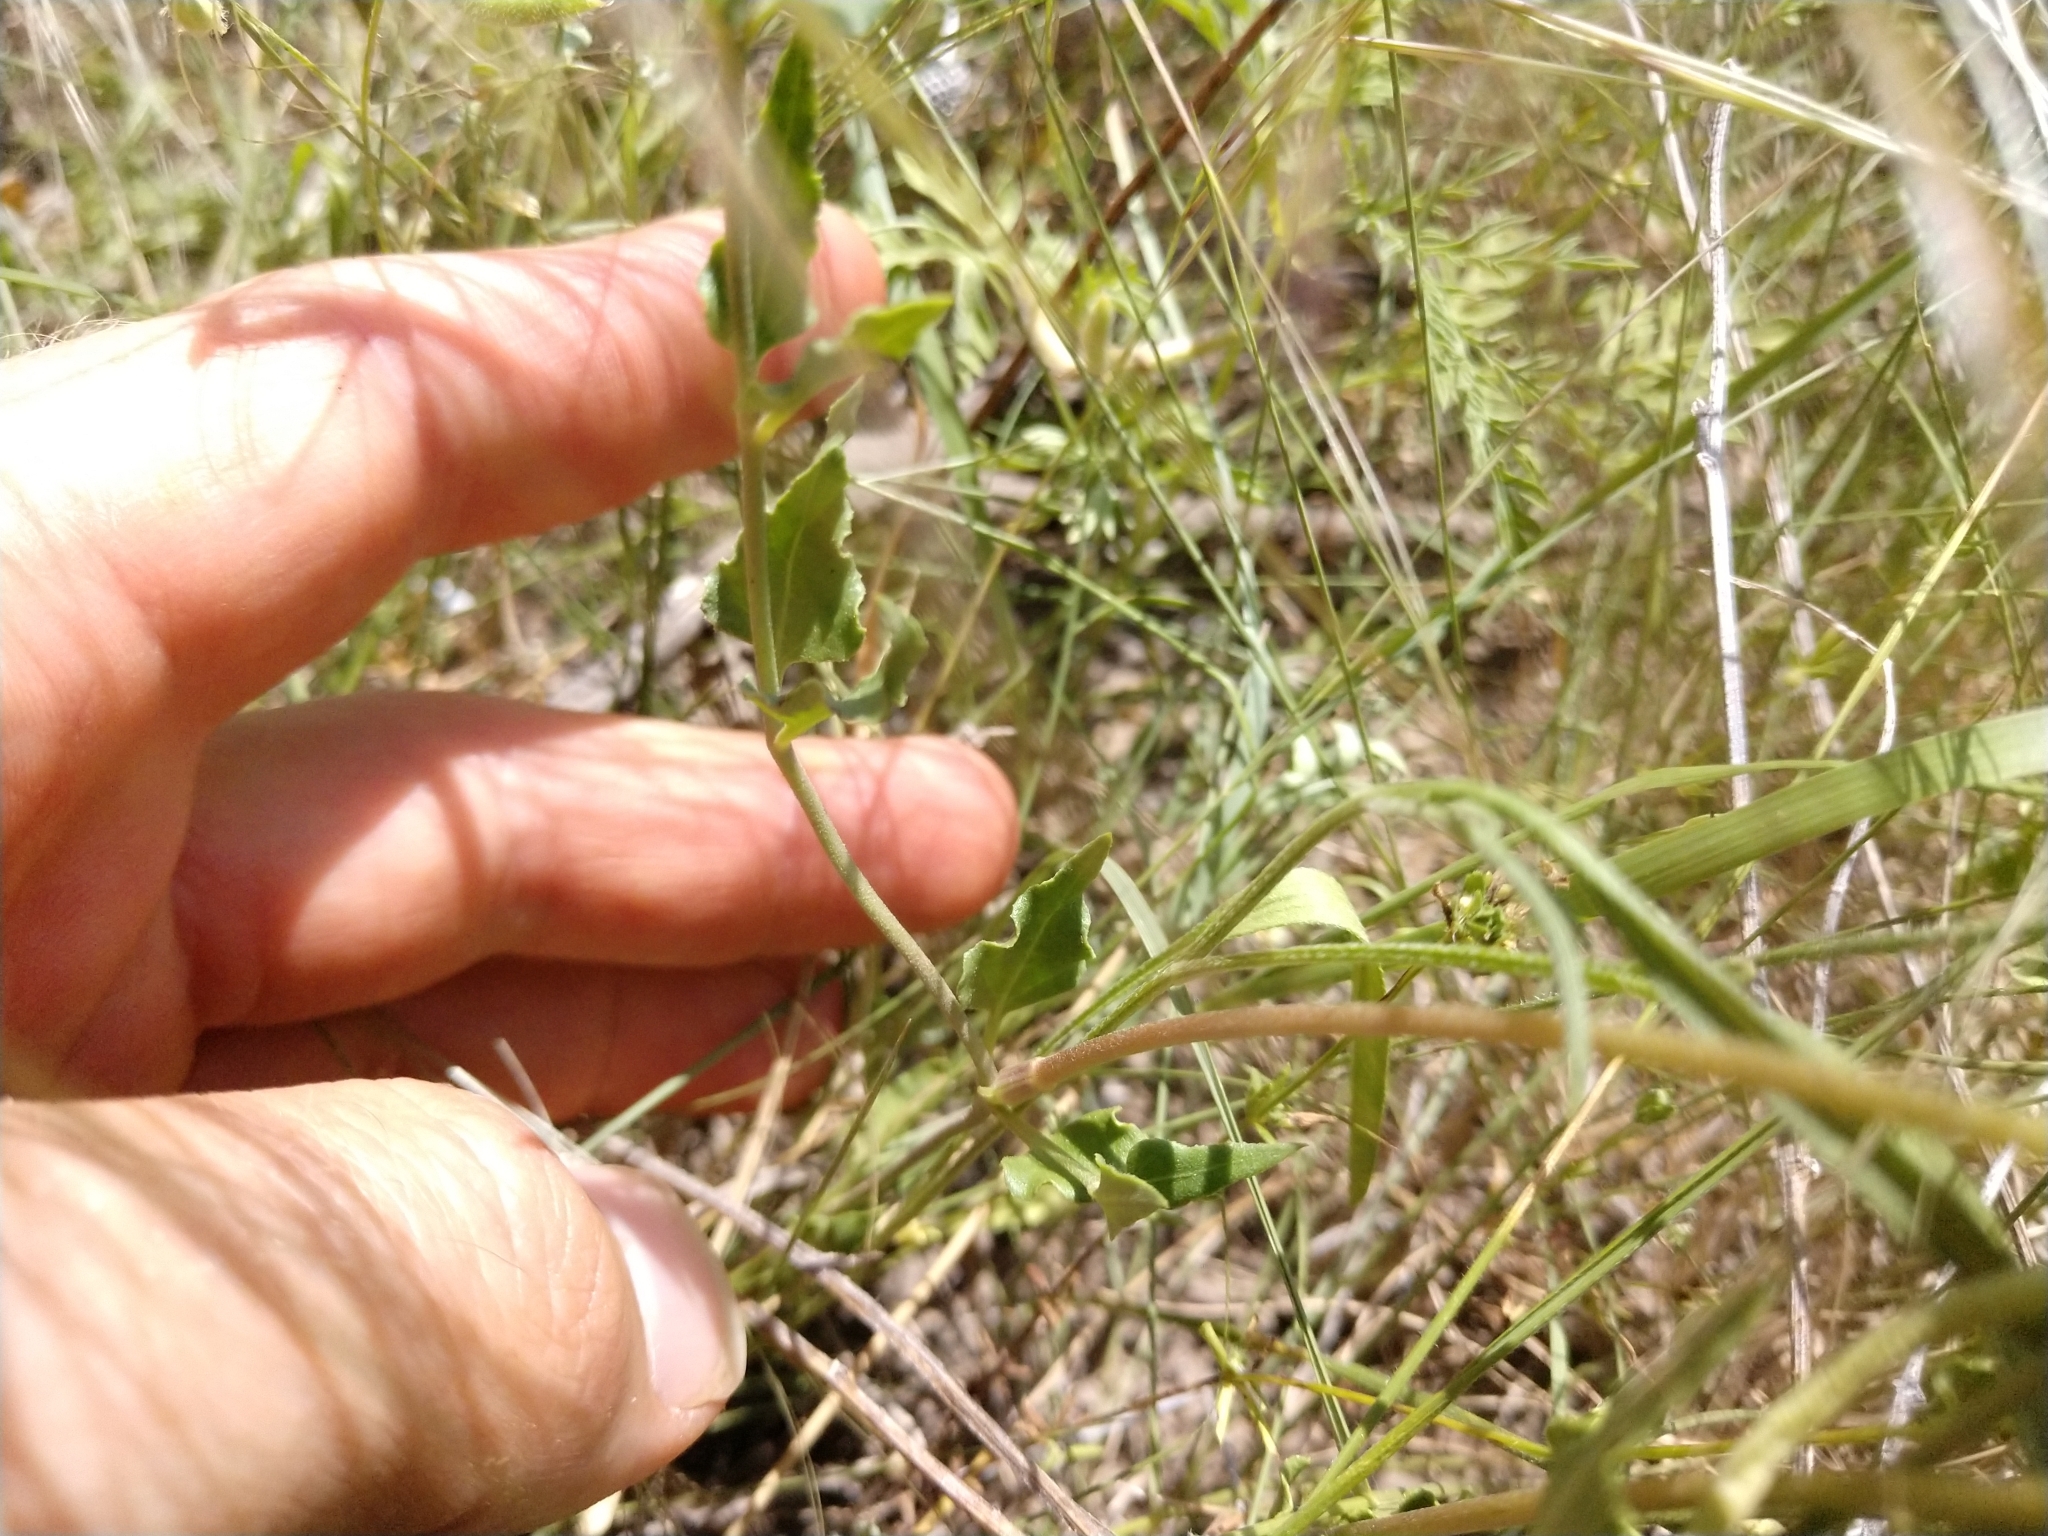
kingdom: Plantae
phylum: Tracheophyta
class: Magnoliopsida
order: Caryophyllales
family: Nyctaginaceae
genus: Acleisanthes
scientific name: Acleisanthes longiflora
